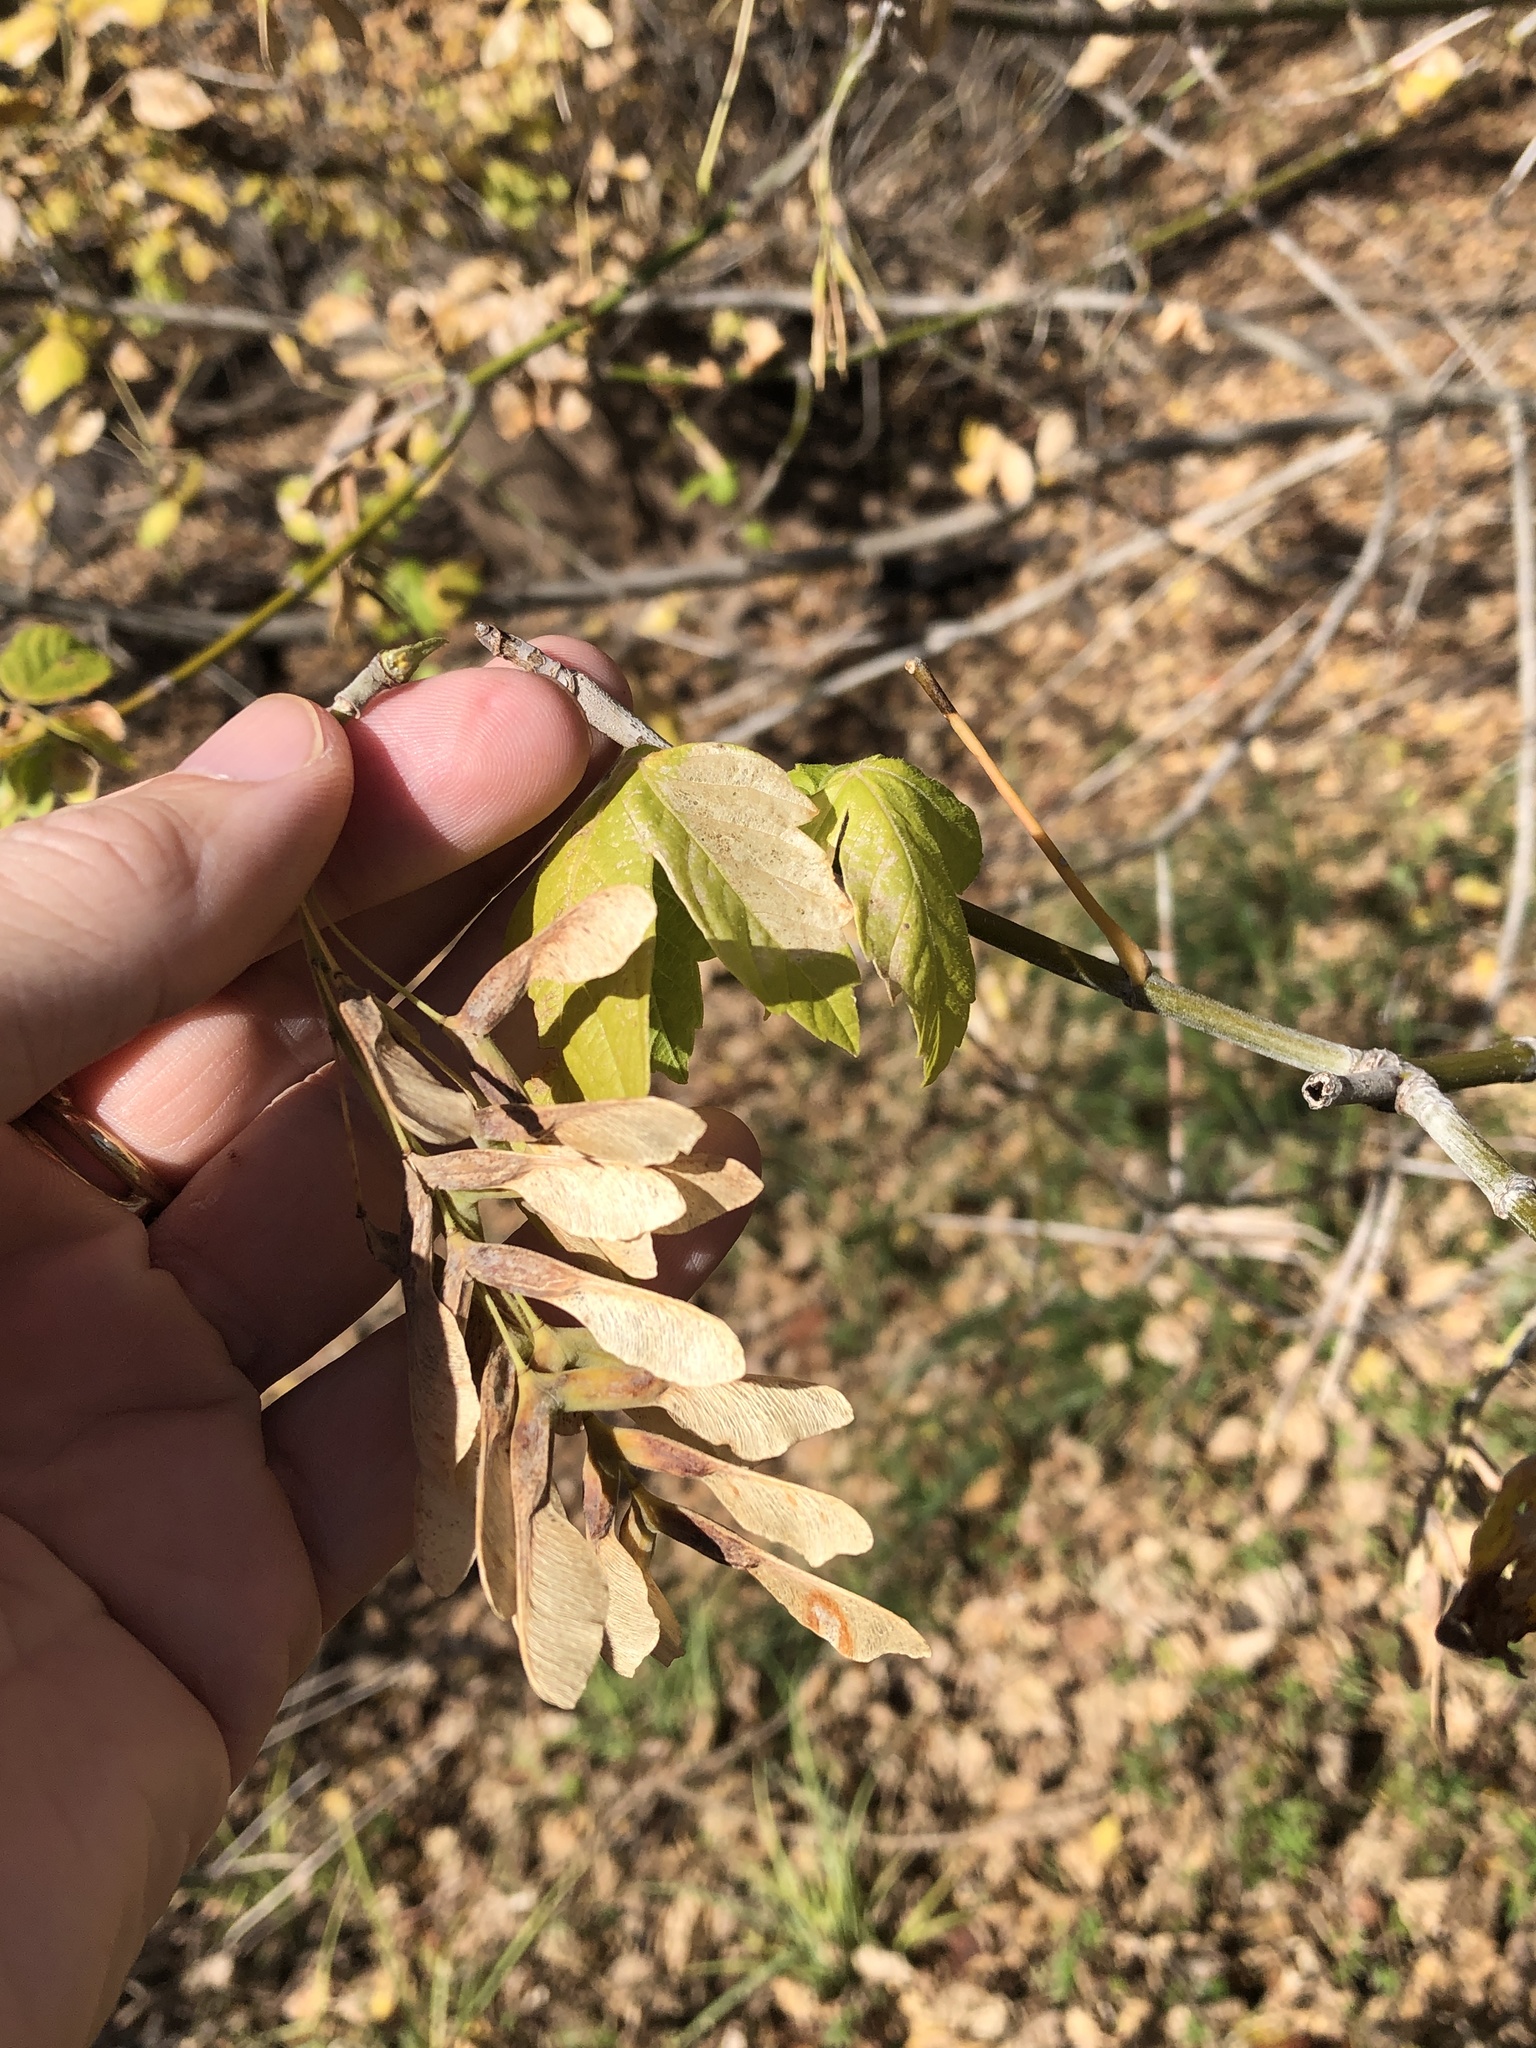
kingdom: Plantae
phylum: Tracheophyta
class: Magnoliopsida
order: Sapindales
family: Sapindaceae
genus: Acer
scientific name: Acer negundo
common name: Ashleaf maple
